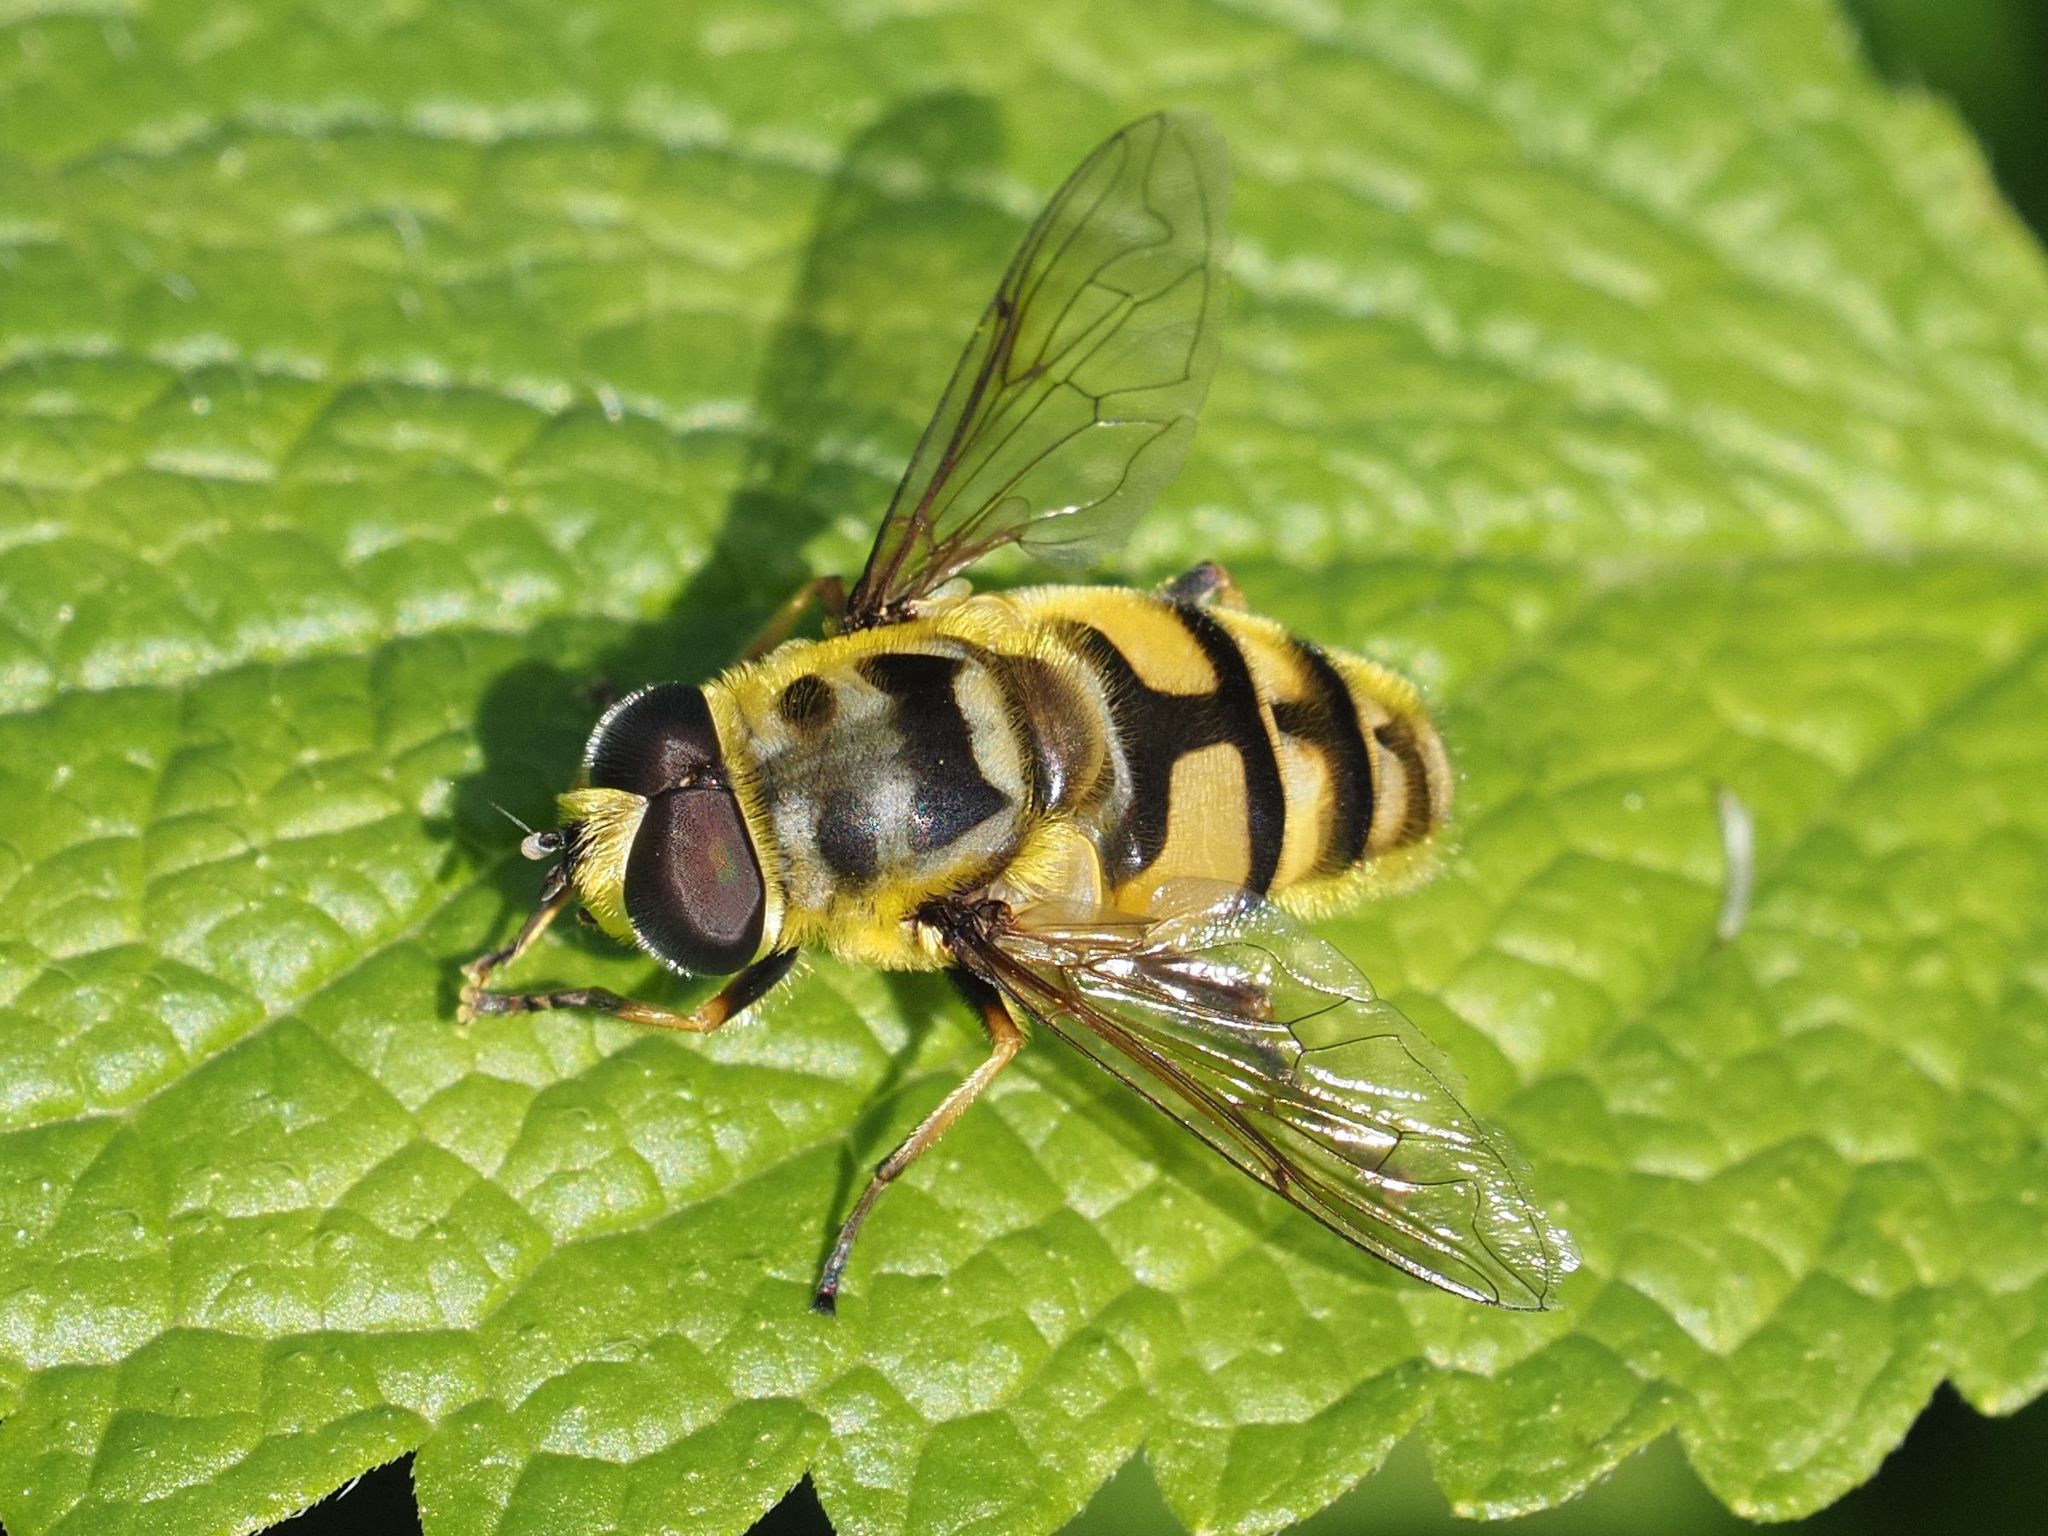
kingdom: Animalia
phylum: Arthropoda
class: Insecta
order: Diptera
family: Syrphidae
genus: Myathropa
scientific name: Myathropa florea
